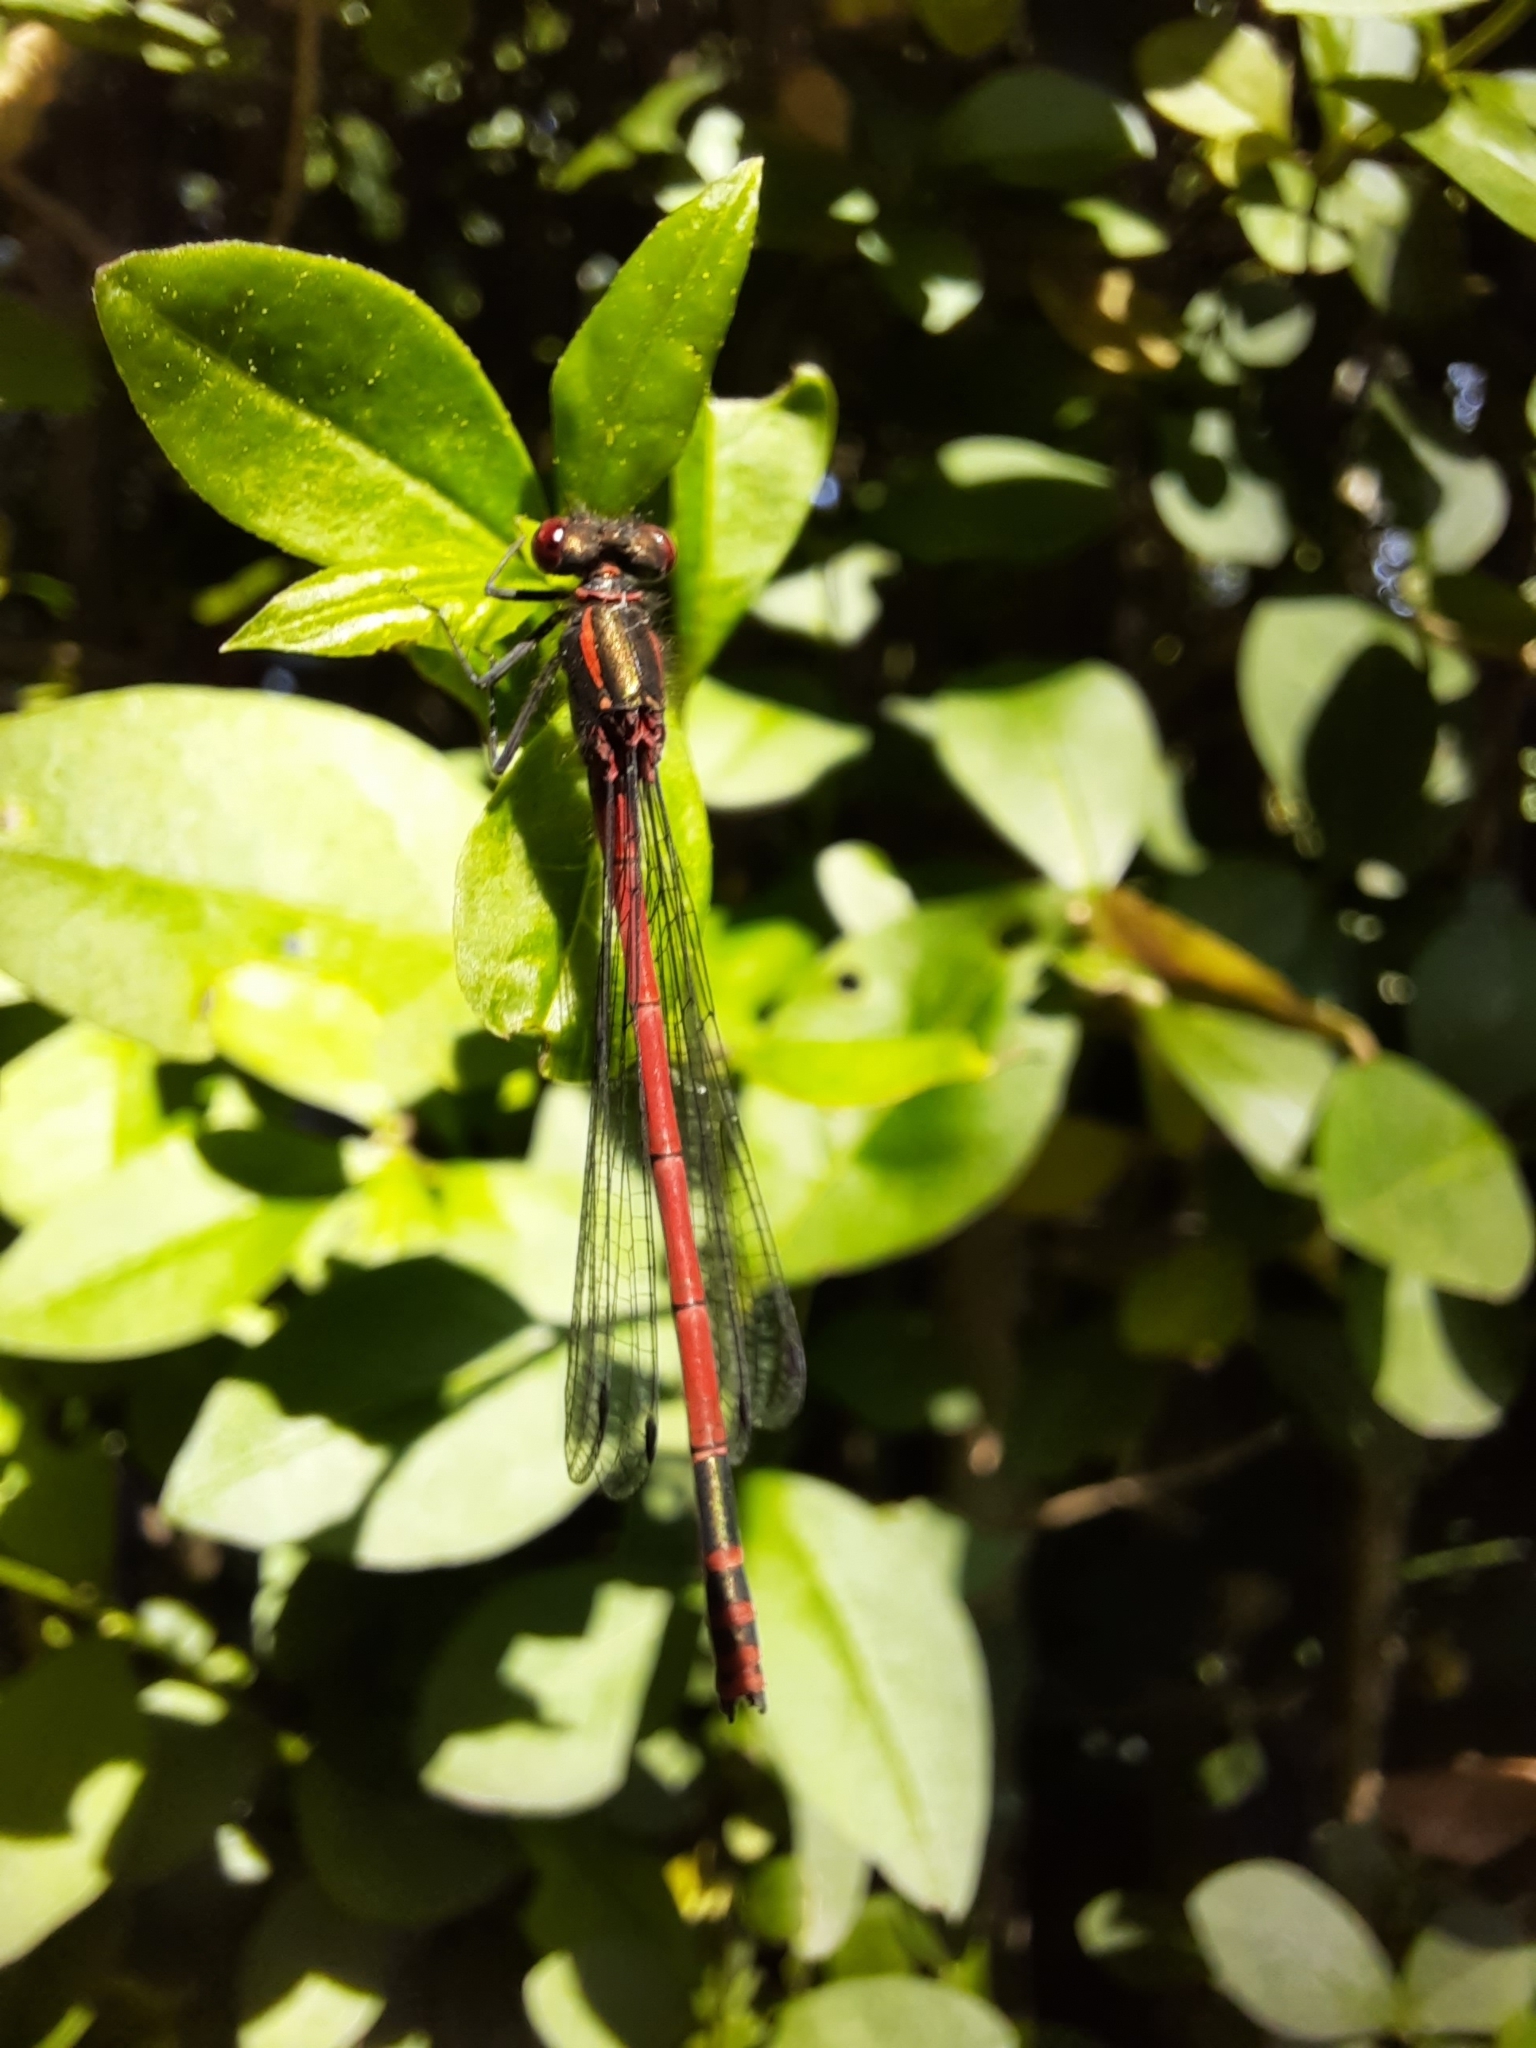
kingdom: Animalia
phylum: Arthropoda
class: Insecta
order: Odonata
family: Coenagrionidae
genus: Pyrrhosoma
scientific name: Pyrrhosoma nymphula
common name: Large red damsel
